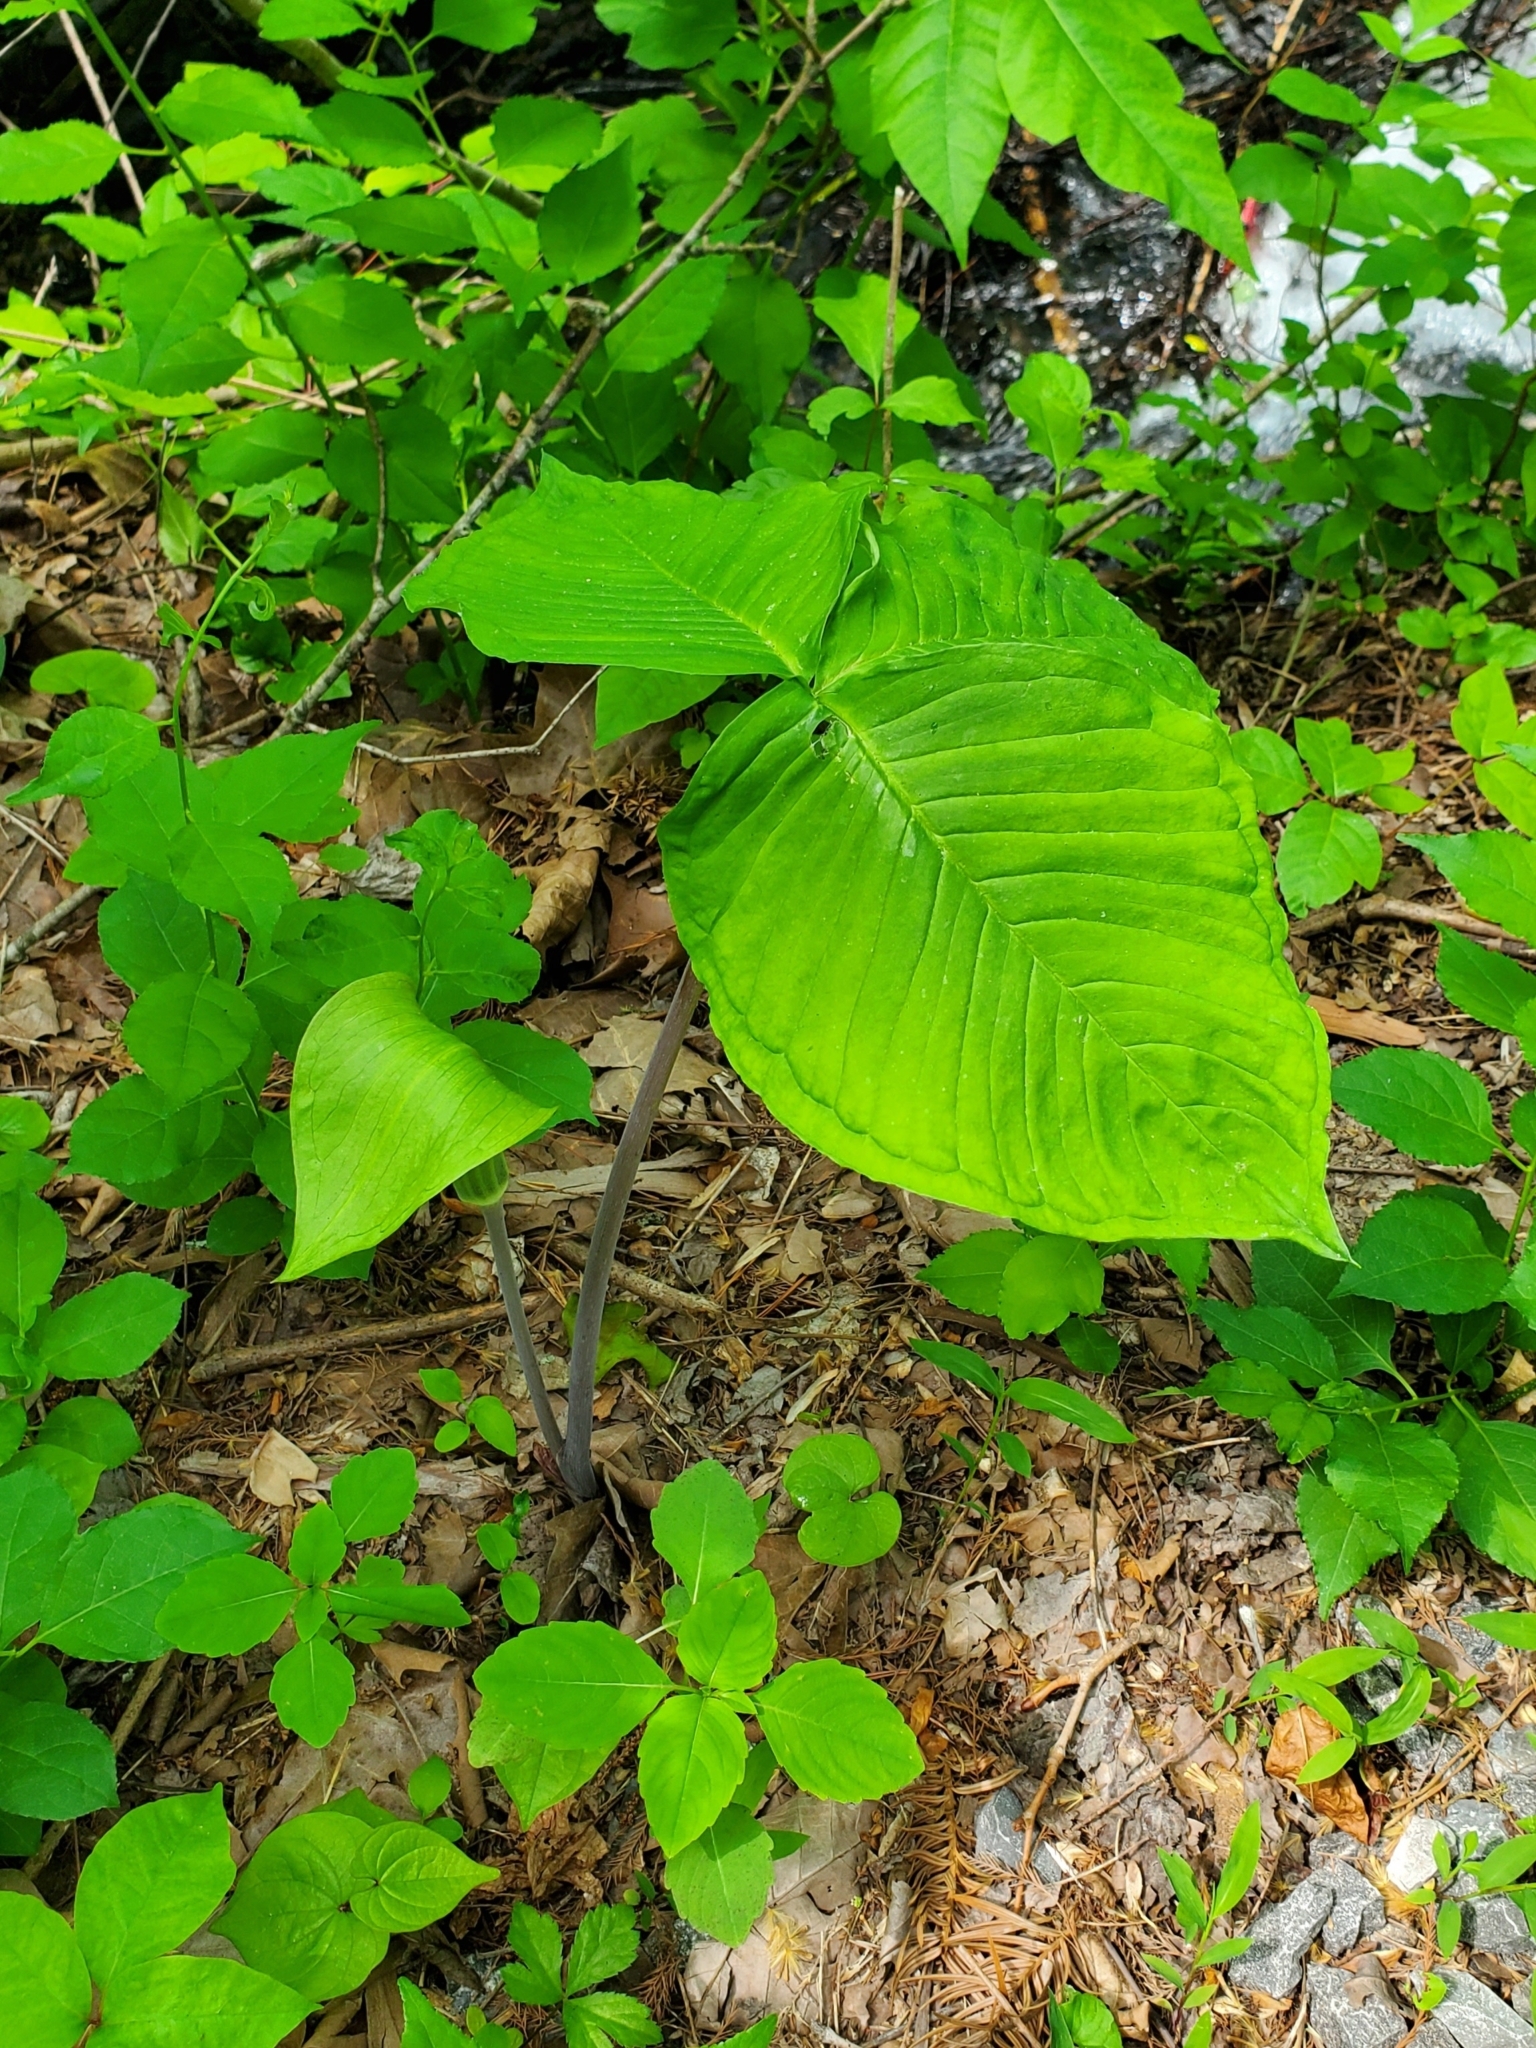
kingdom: Plantae
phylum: Tracheophyta
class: Liliopsida
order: Alismatales
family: Araceae
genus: Arisaema
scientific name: Arisaema triphyllum
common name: Jack-in-the-pulpit
